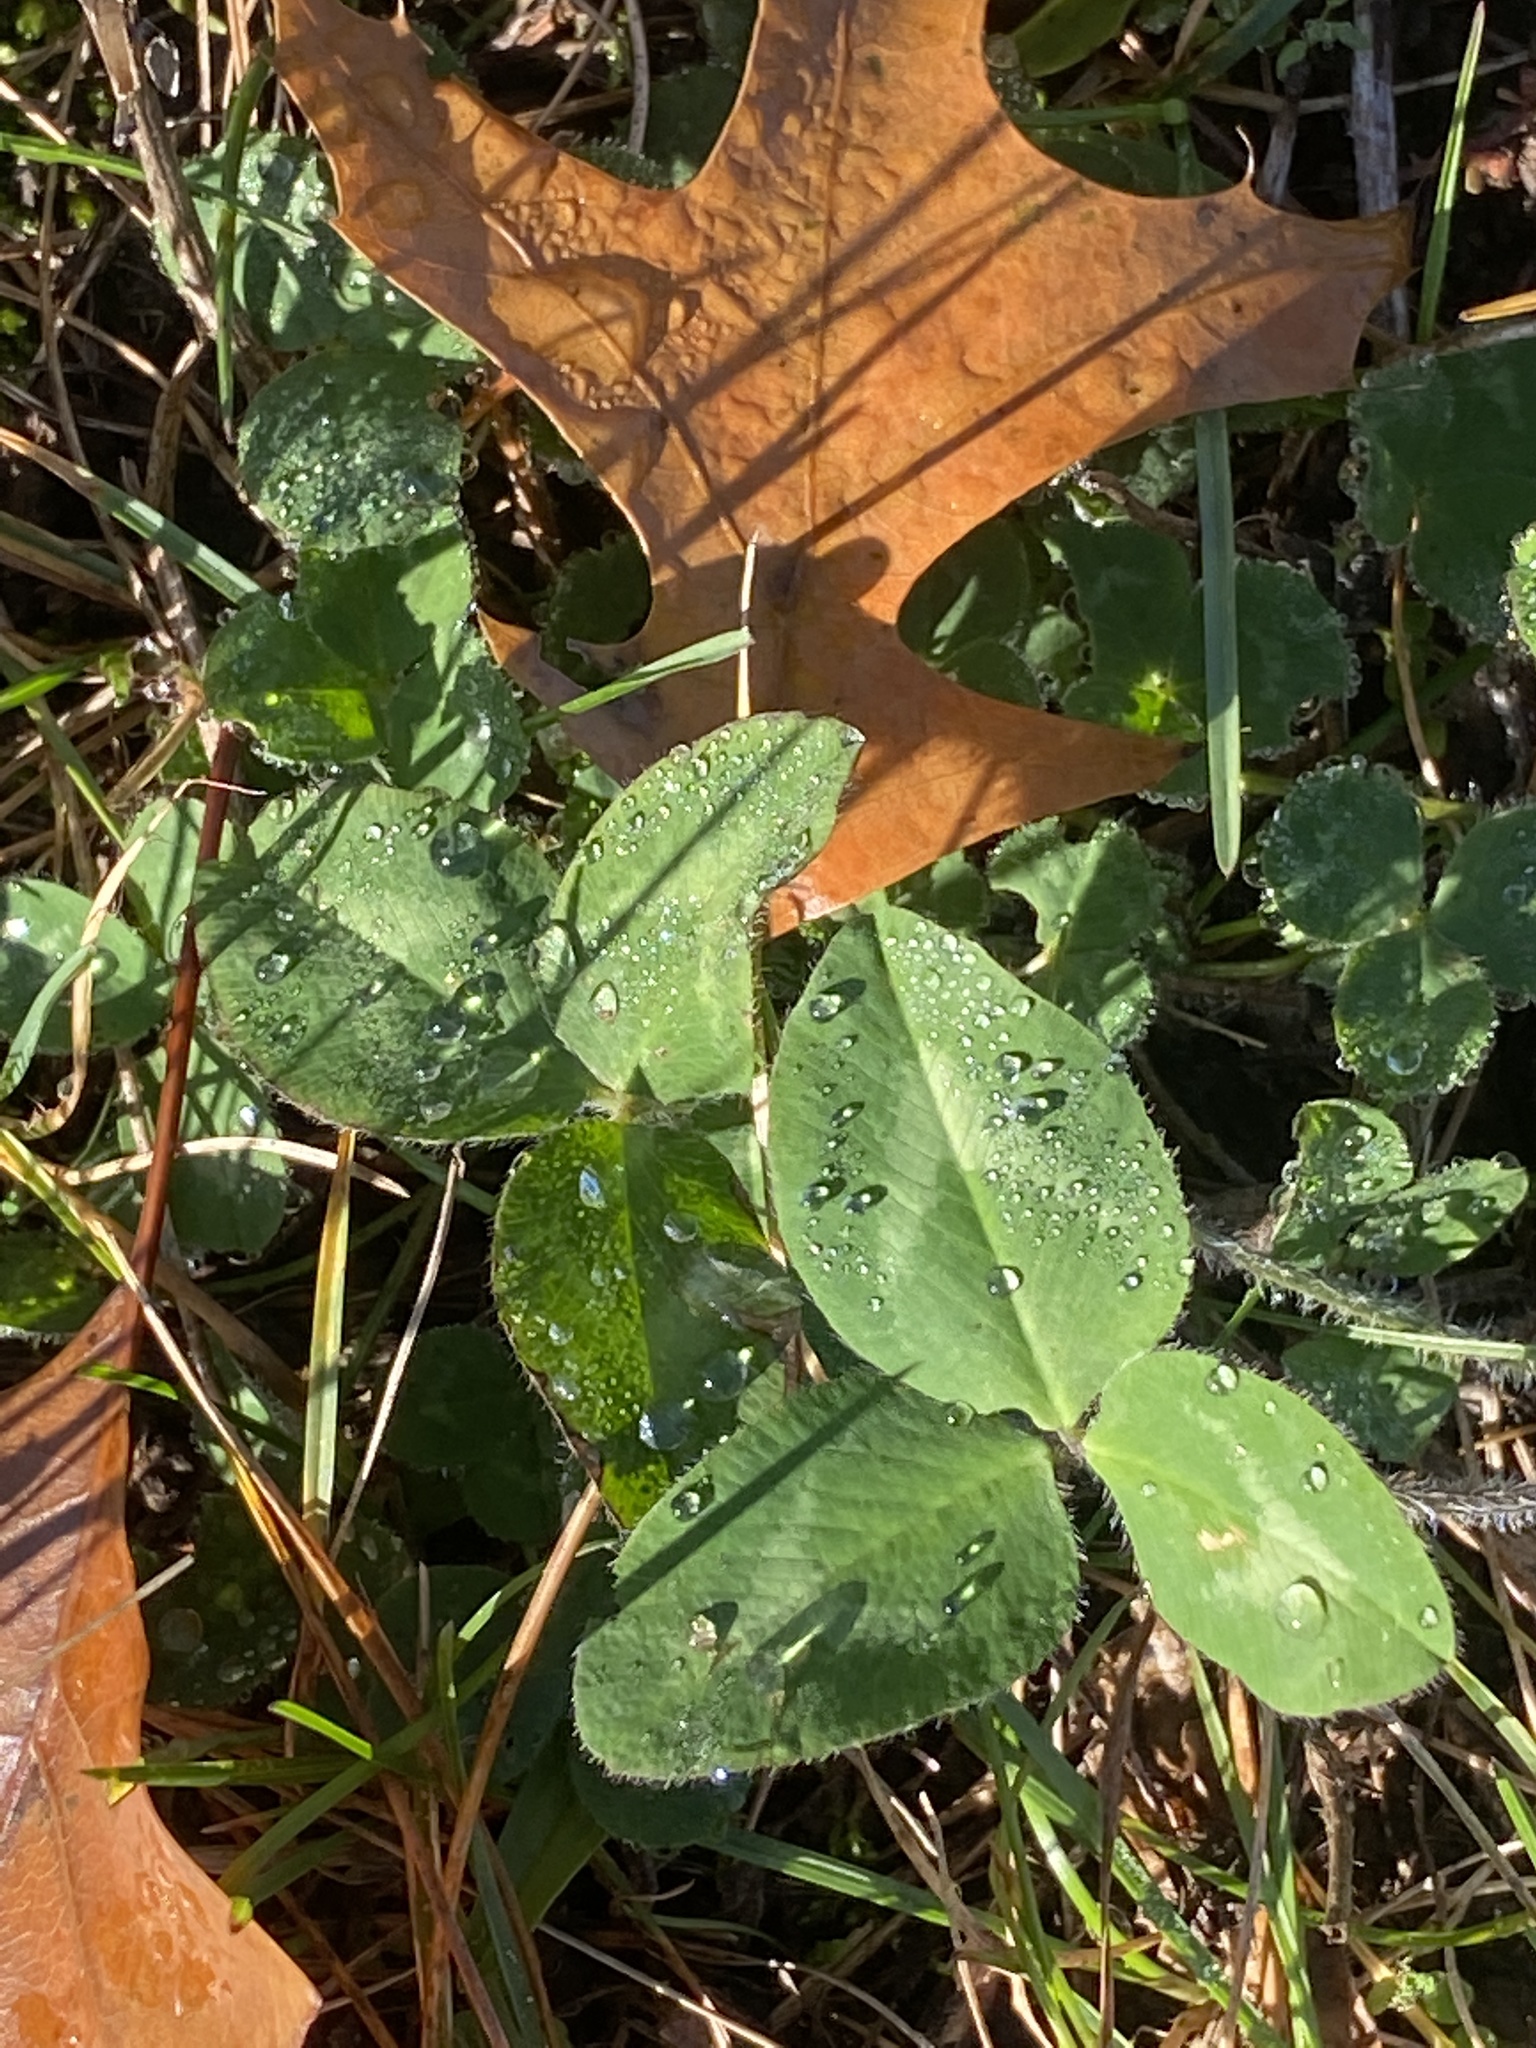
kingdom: Plantae
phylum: Tracheophyta
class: Magnoliopsida
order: Fabales
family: Fabaceae
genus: Trifolium
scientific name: Trifolium pratense
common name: Red clover
